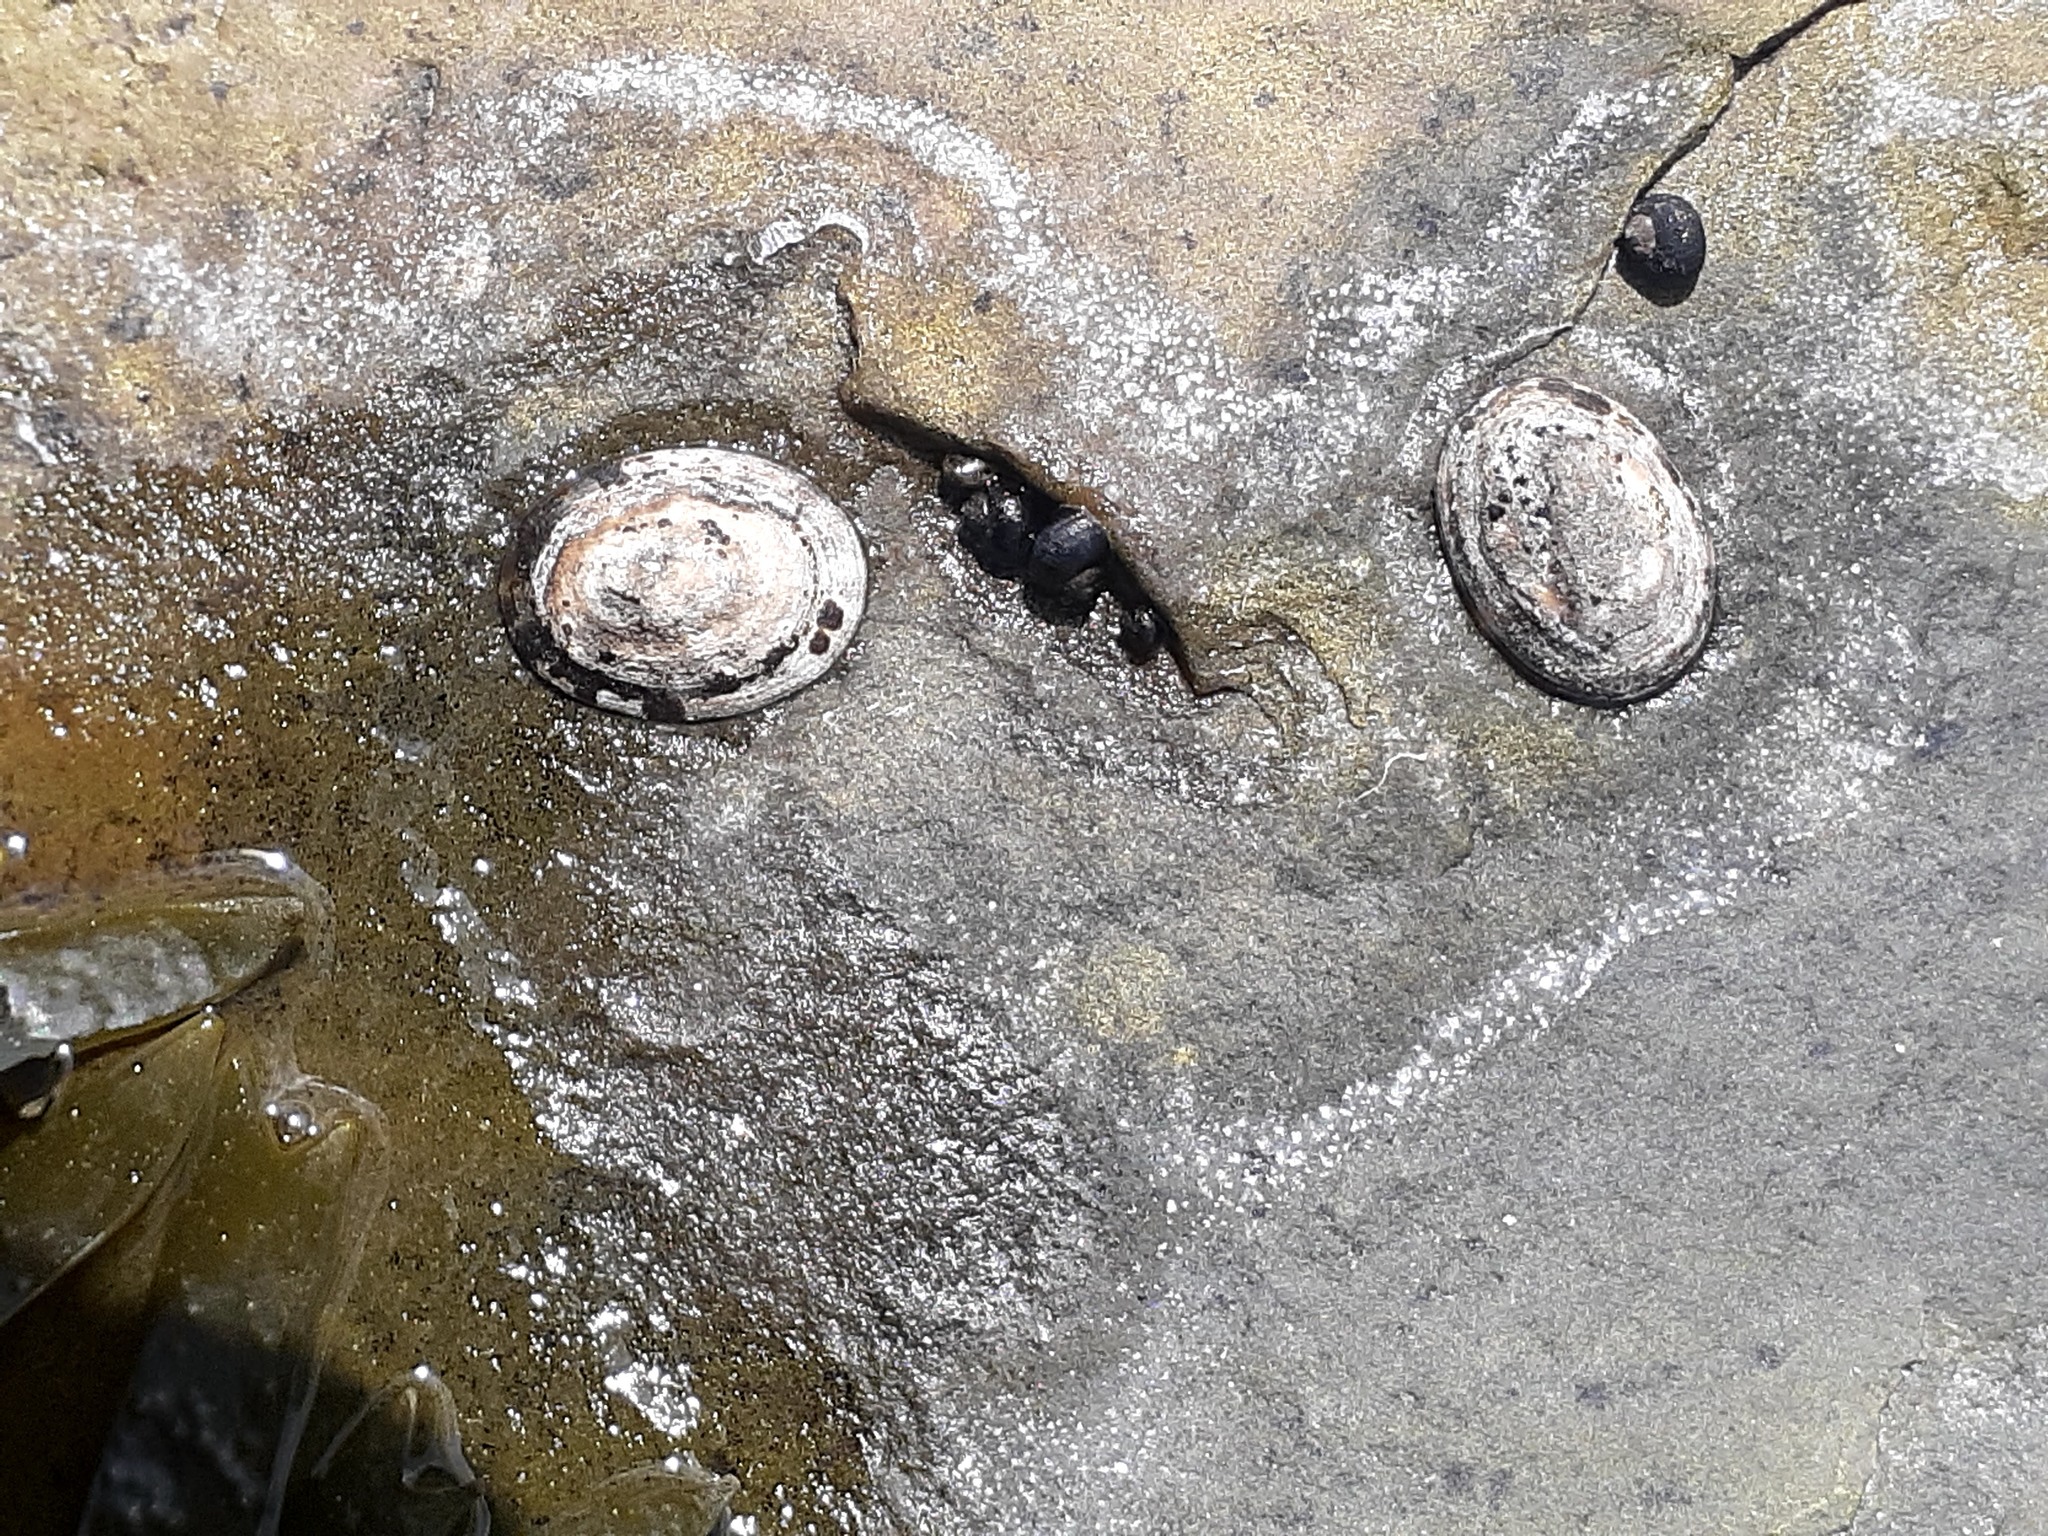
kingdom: Animalia
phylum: Mollusca
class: Gastropoda
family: Lottiidae
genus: Testudinalia
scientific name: Testudinalia testudinalis
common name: Common tortoiseshell limpet
